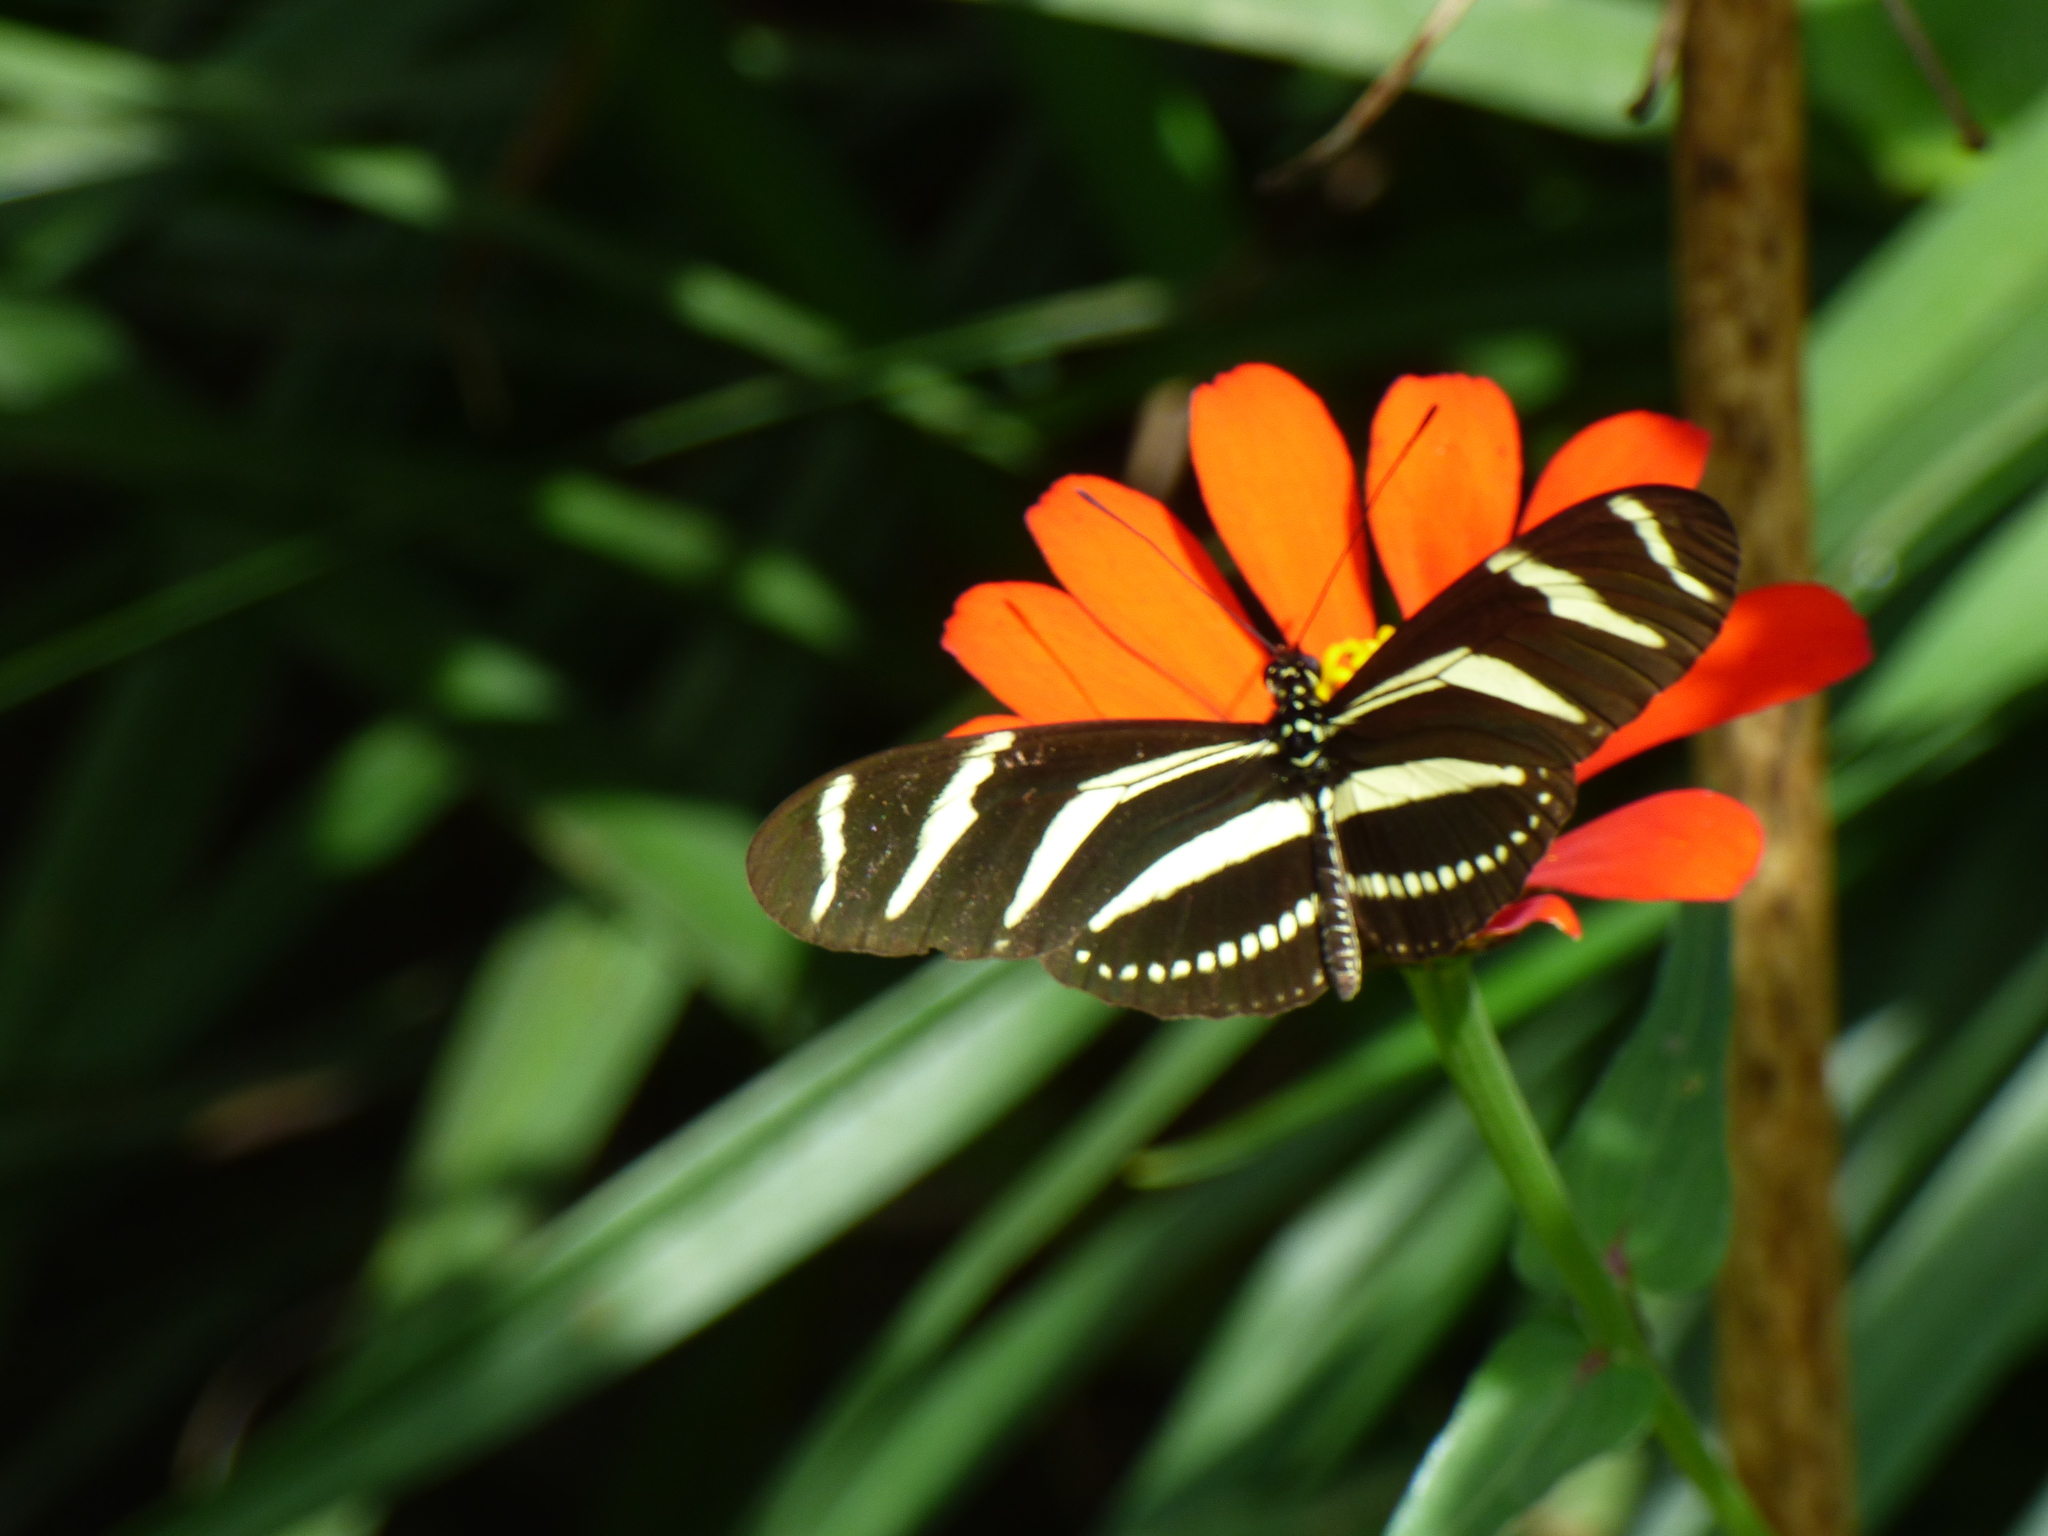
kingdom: Animalia
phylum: Arthropoda
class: Insecta
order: Lepidoptera
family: Nymphalidae
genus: Heliconius
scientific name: Heliconius charithonia
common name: Zebra long wing
